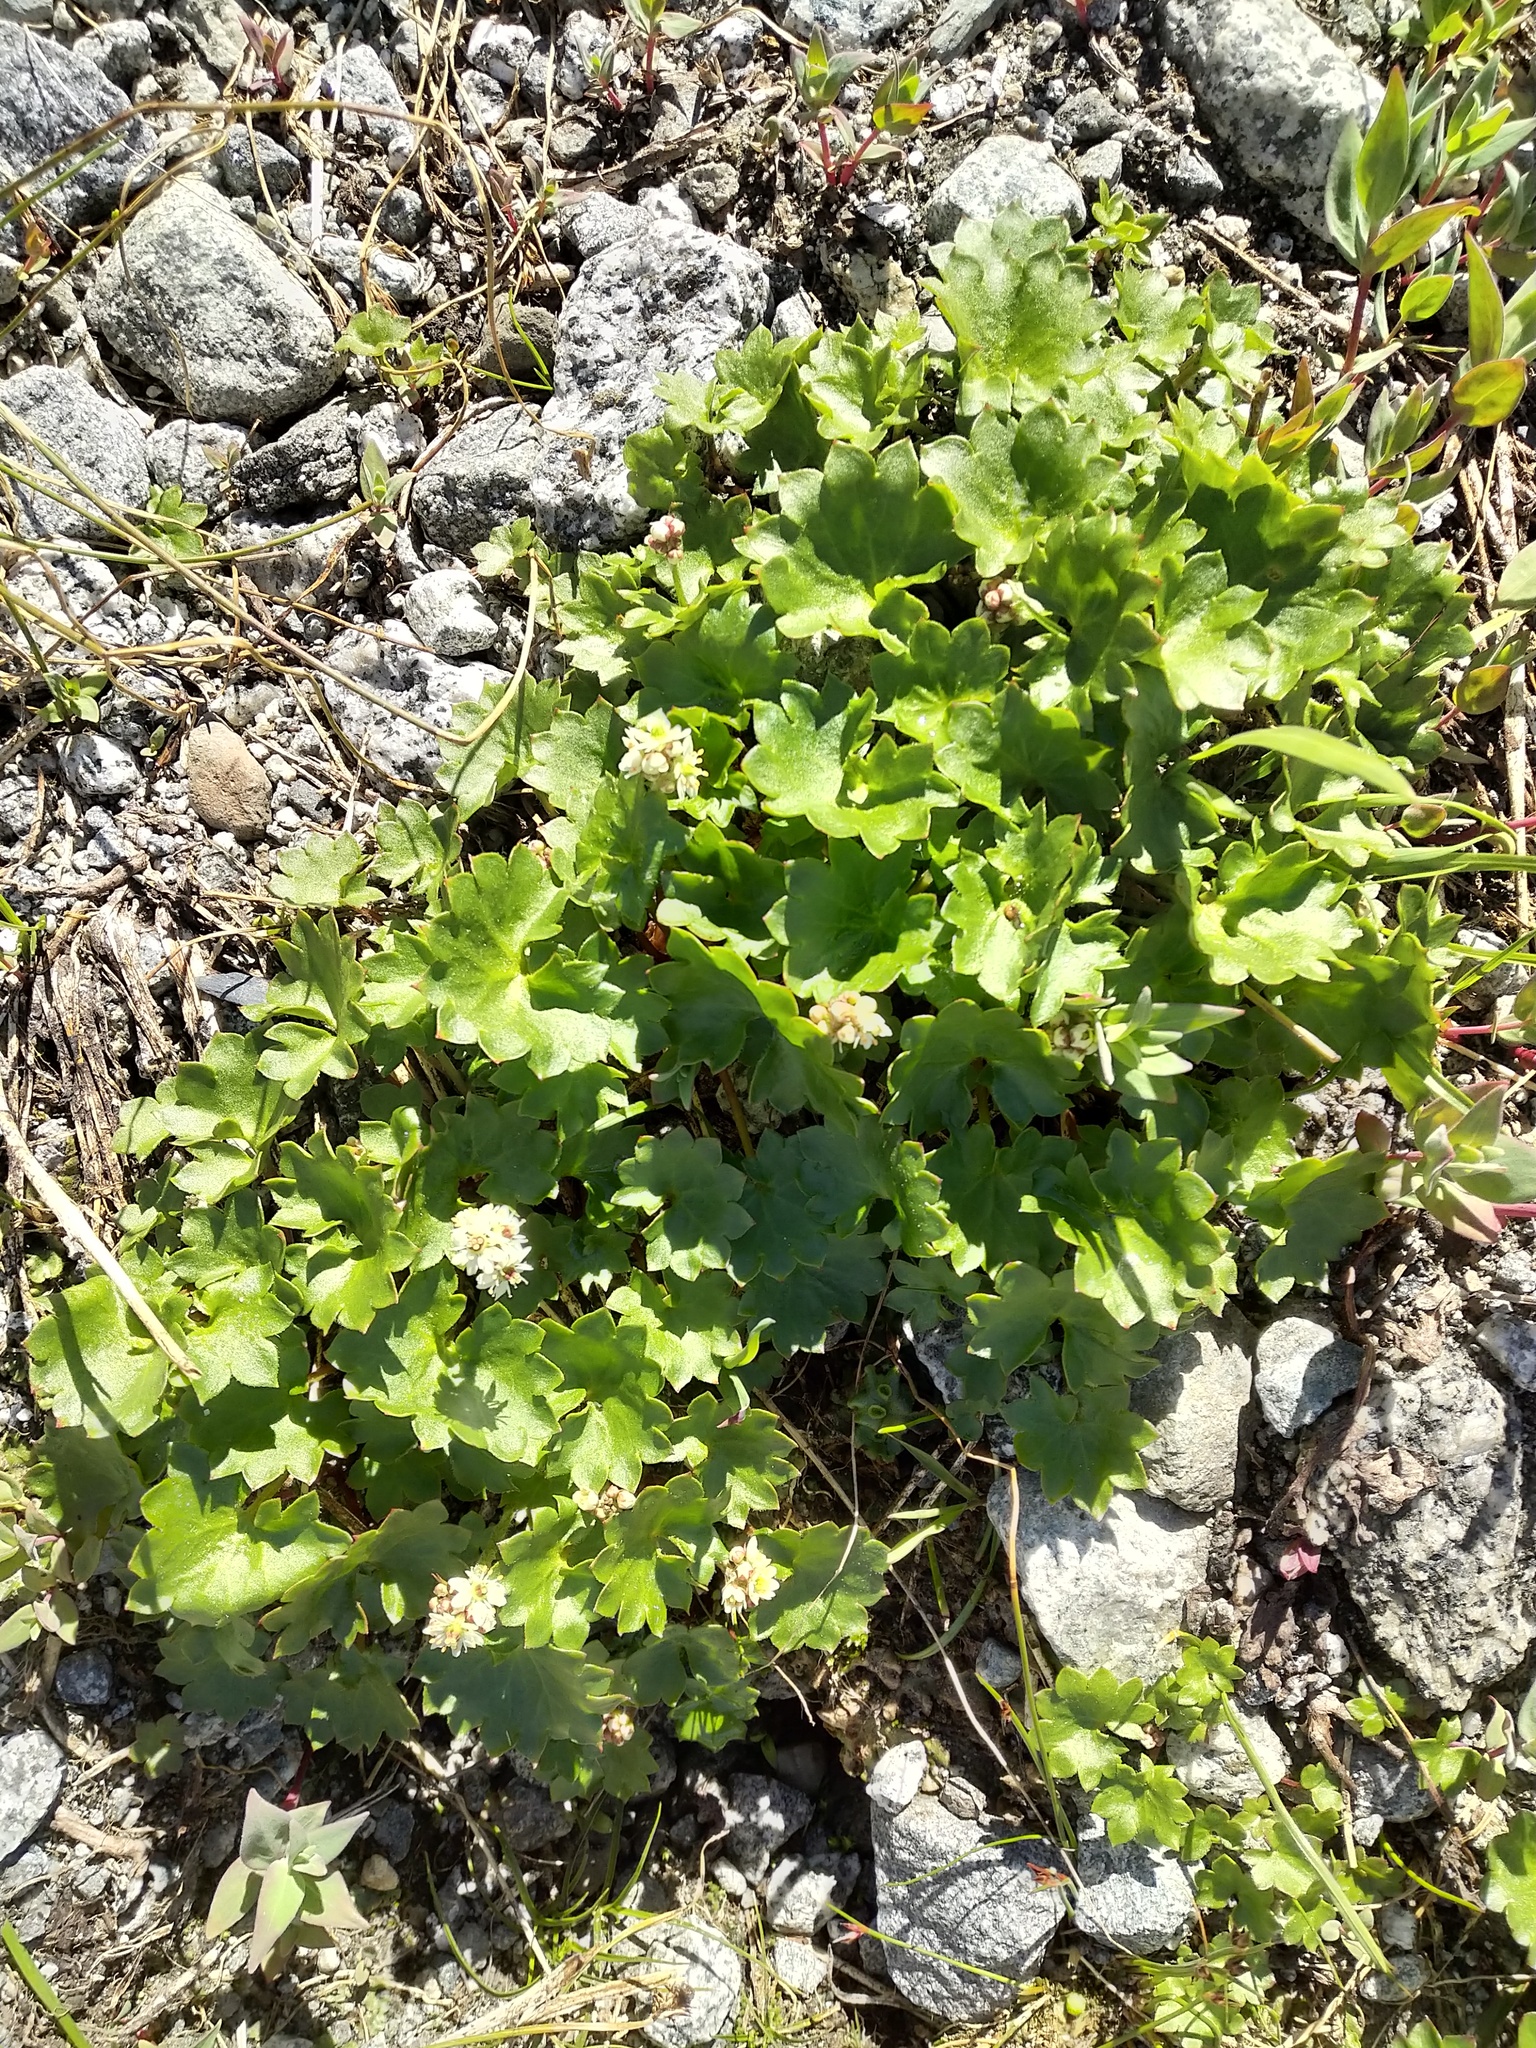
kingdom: Plantae
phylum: Tracheophyta
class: Magnoliopsida
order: Saxifragales
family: Saxifragaceae
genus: Micranthes
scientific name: Micranthes nelsoniana
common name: Nelson's saxifrage
